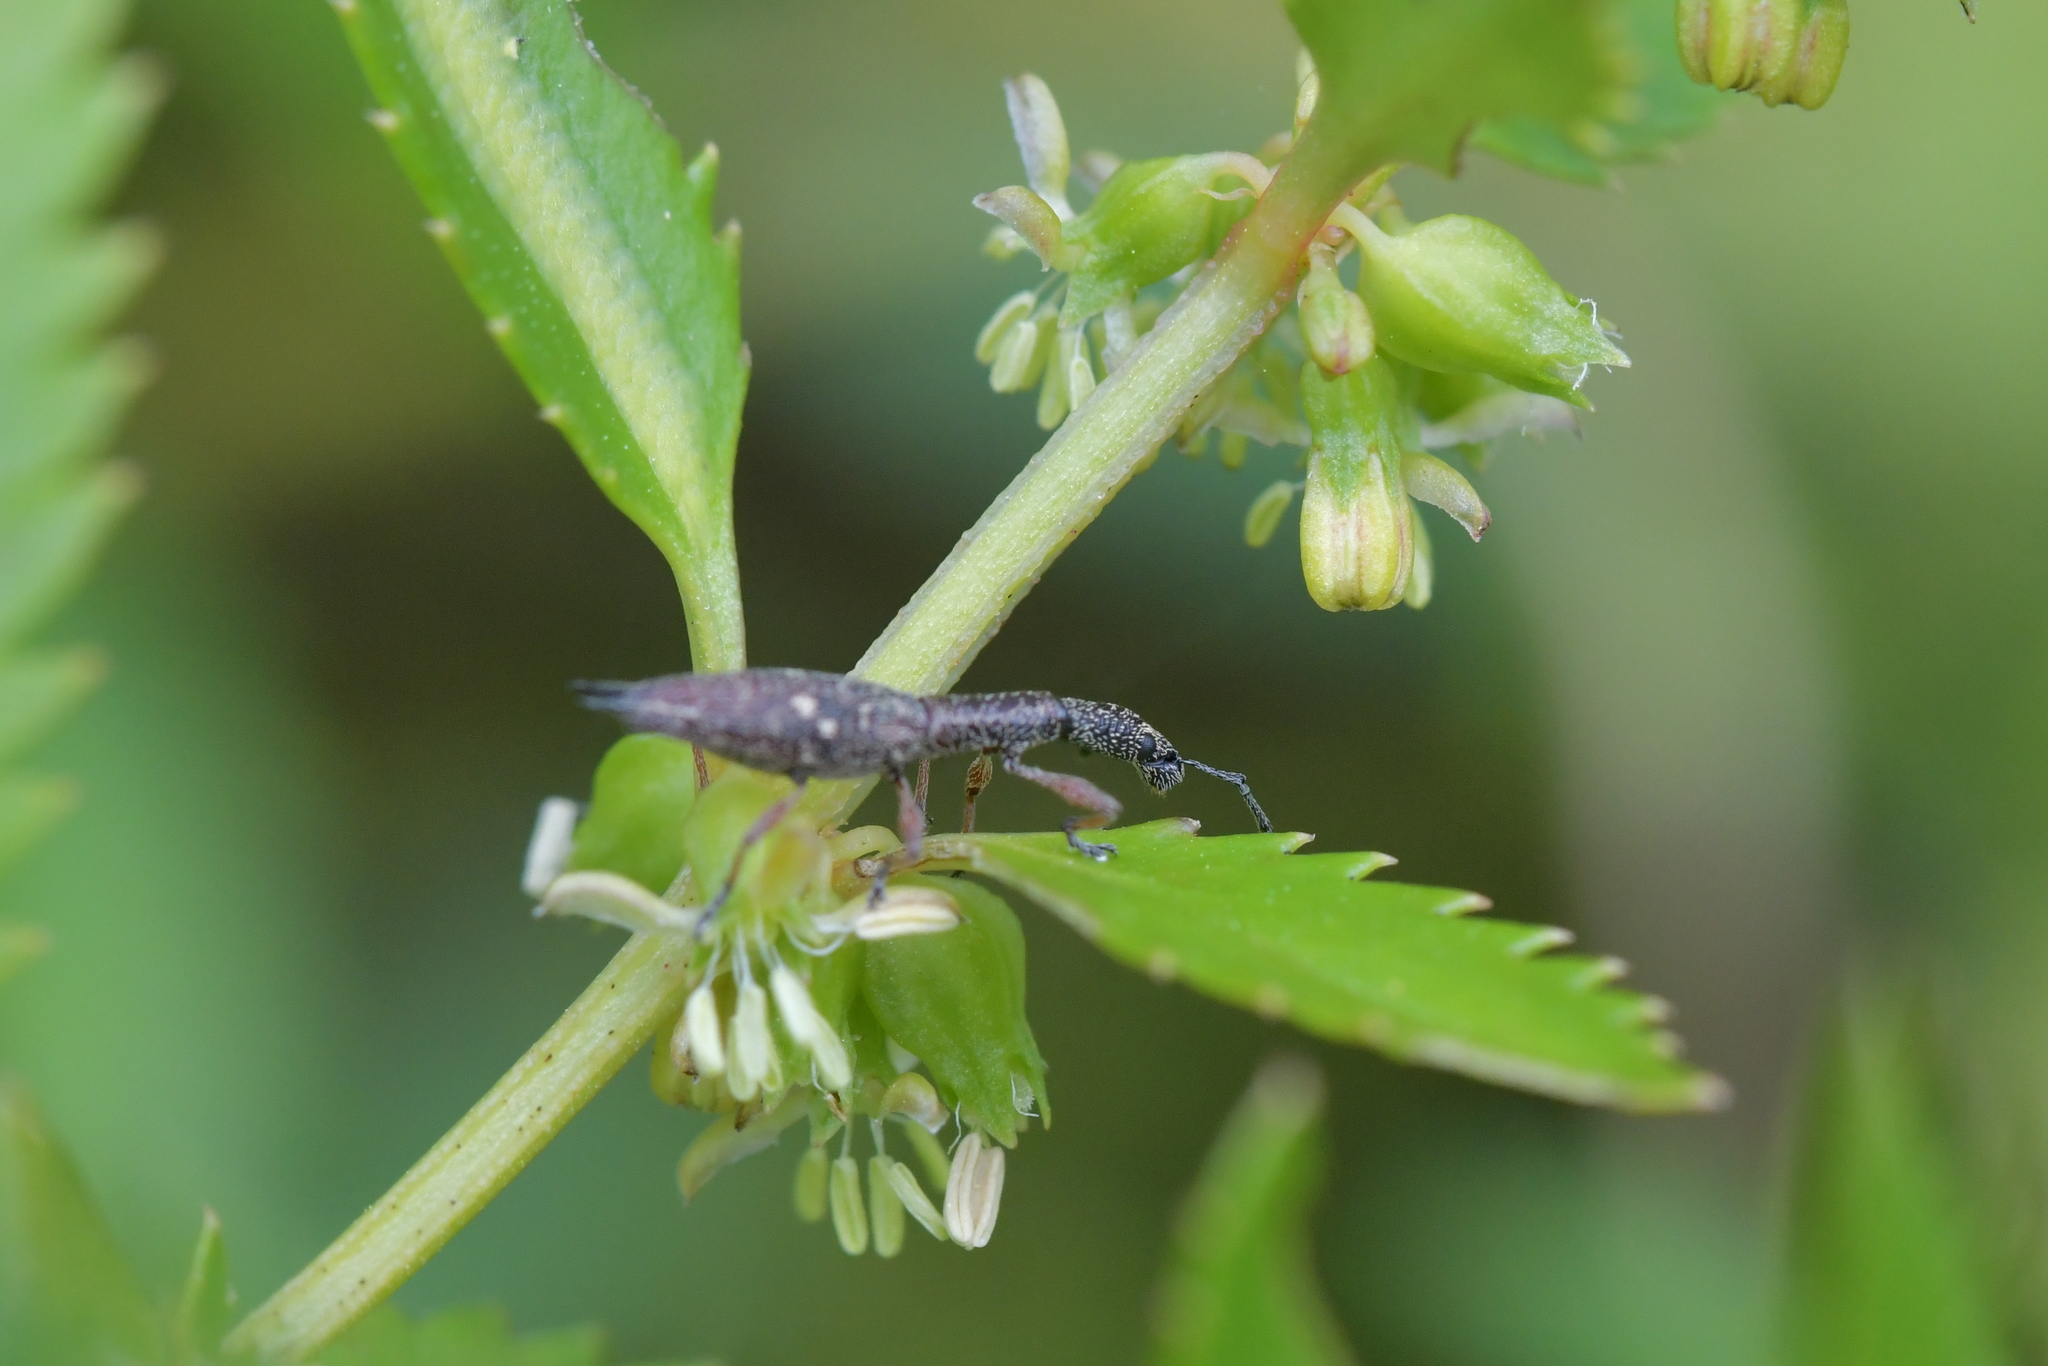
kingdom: Animalia
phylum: Arthropoda
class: Insecta
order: Coleoptera
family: Curculionidae
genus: Rhadinosomus
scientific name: Rhadinosomus acuminatus
